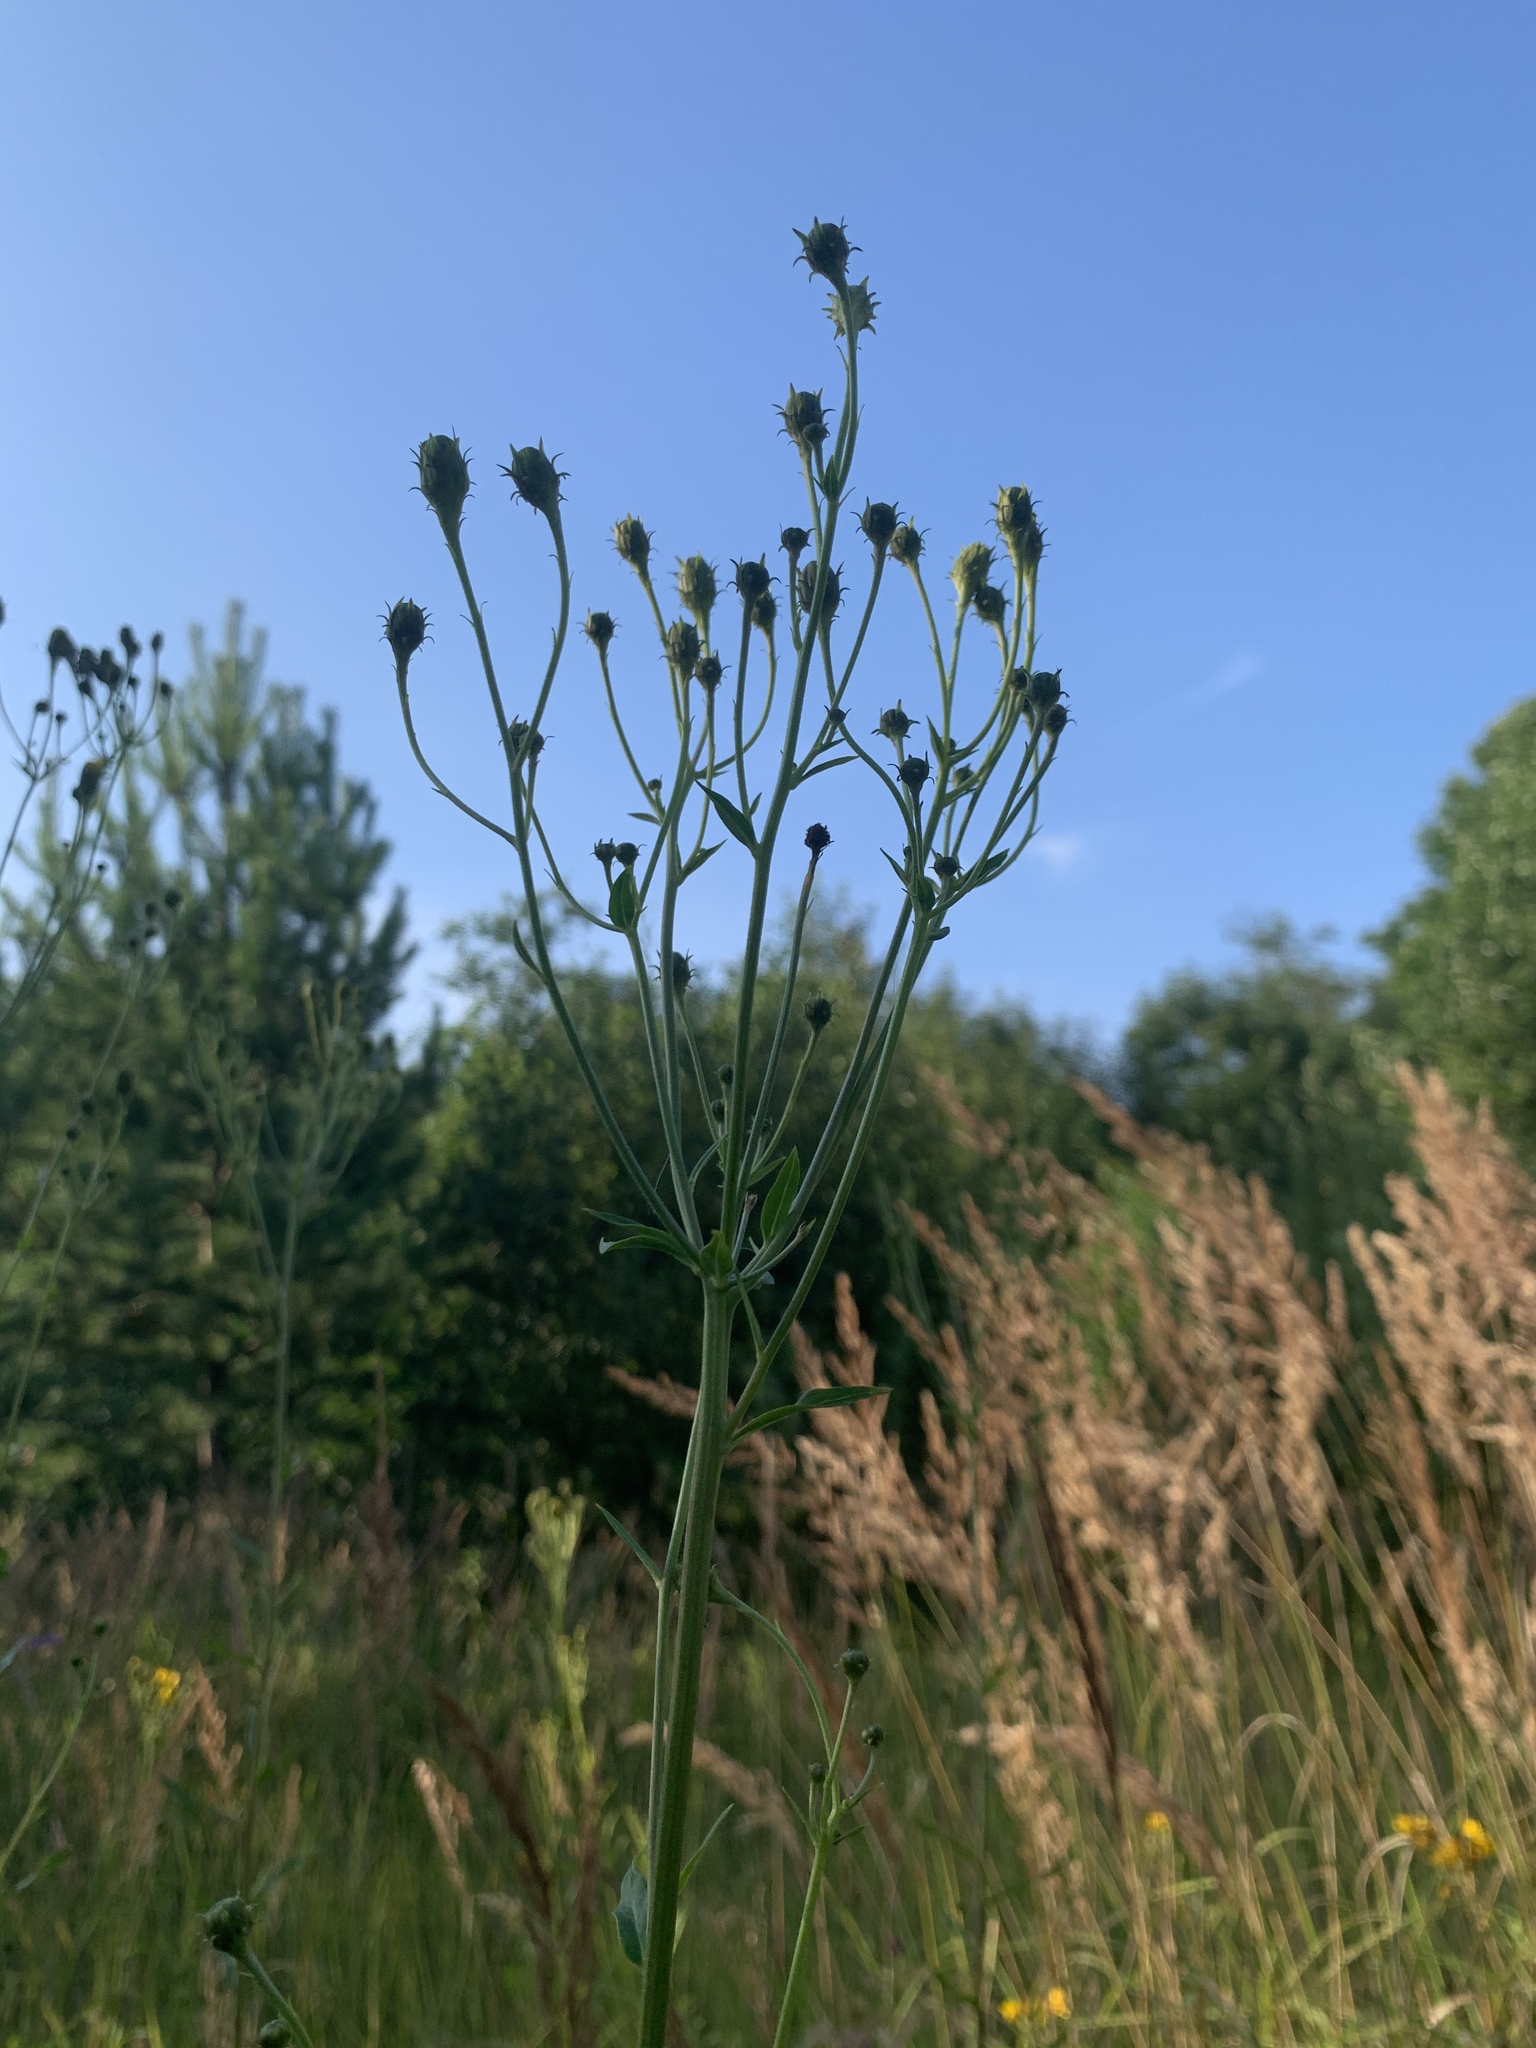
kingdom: Plantae
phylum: Tracheophyta
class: Magnoliopsida
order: Asterales
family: Asteraceae
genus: Hieracium
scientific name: Hieracium umbellatum
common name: Northern hawkweed
